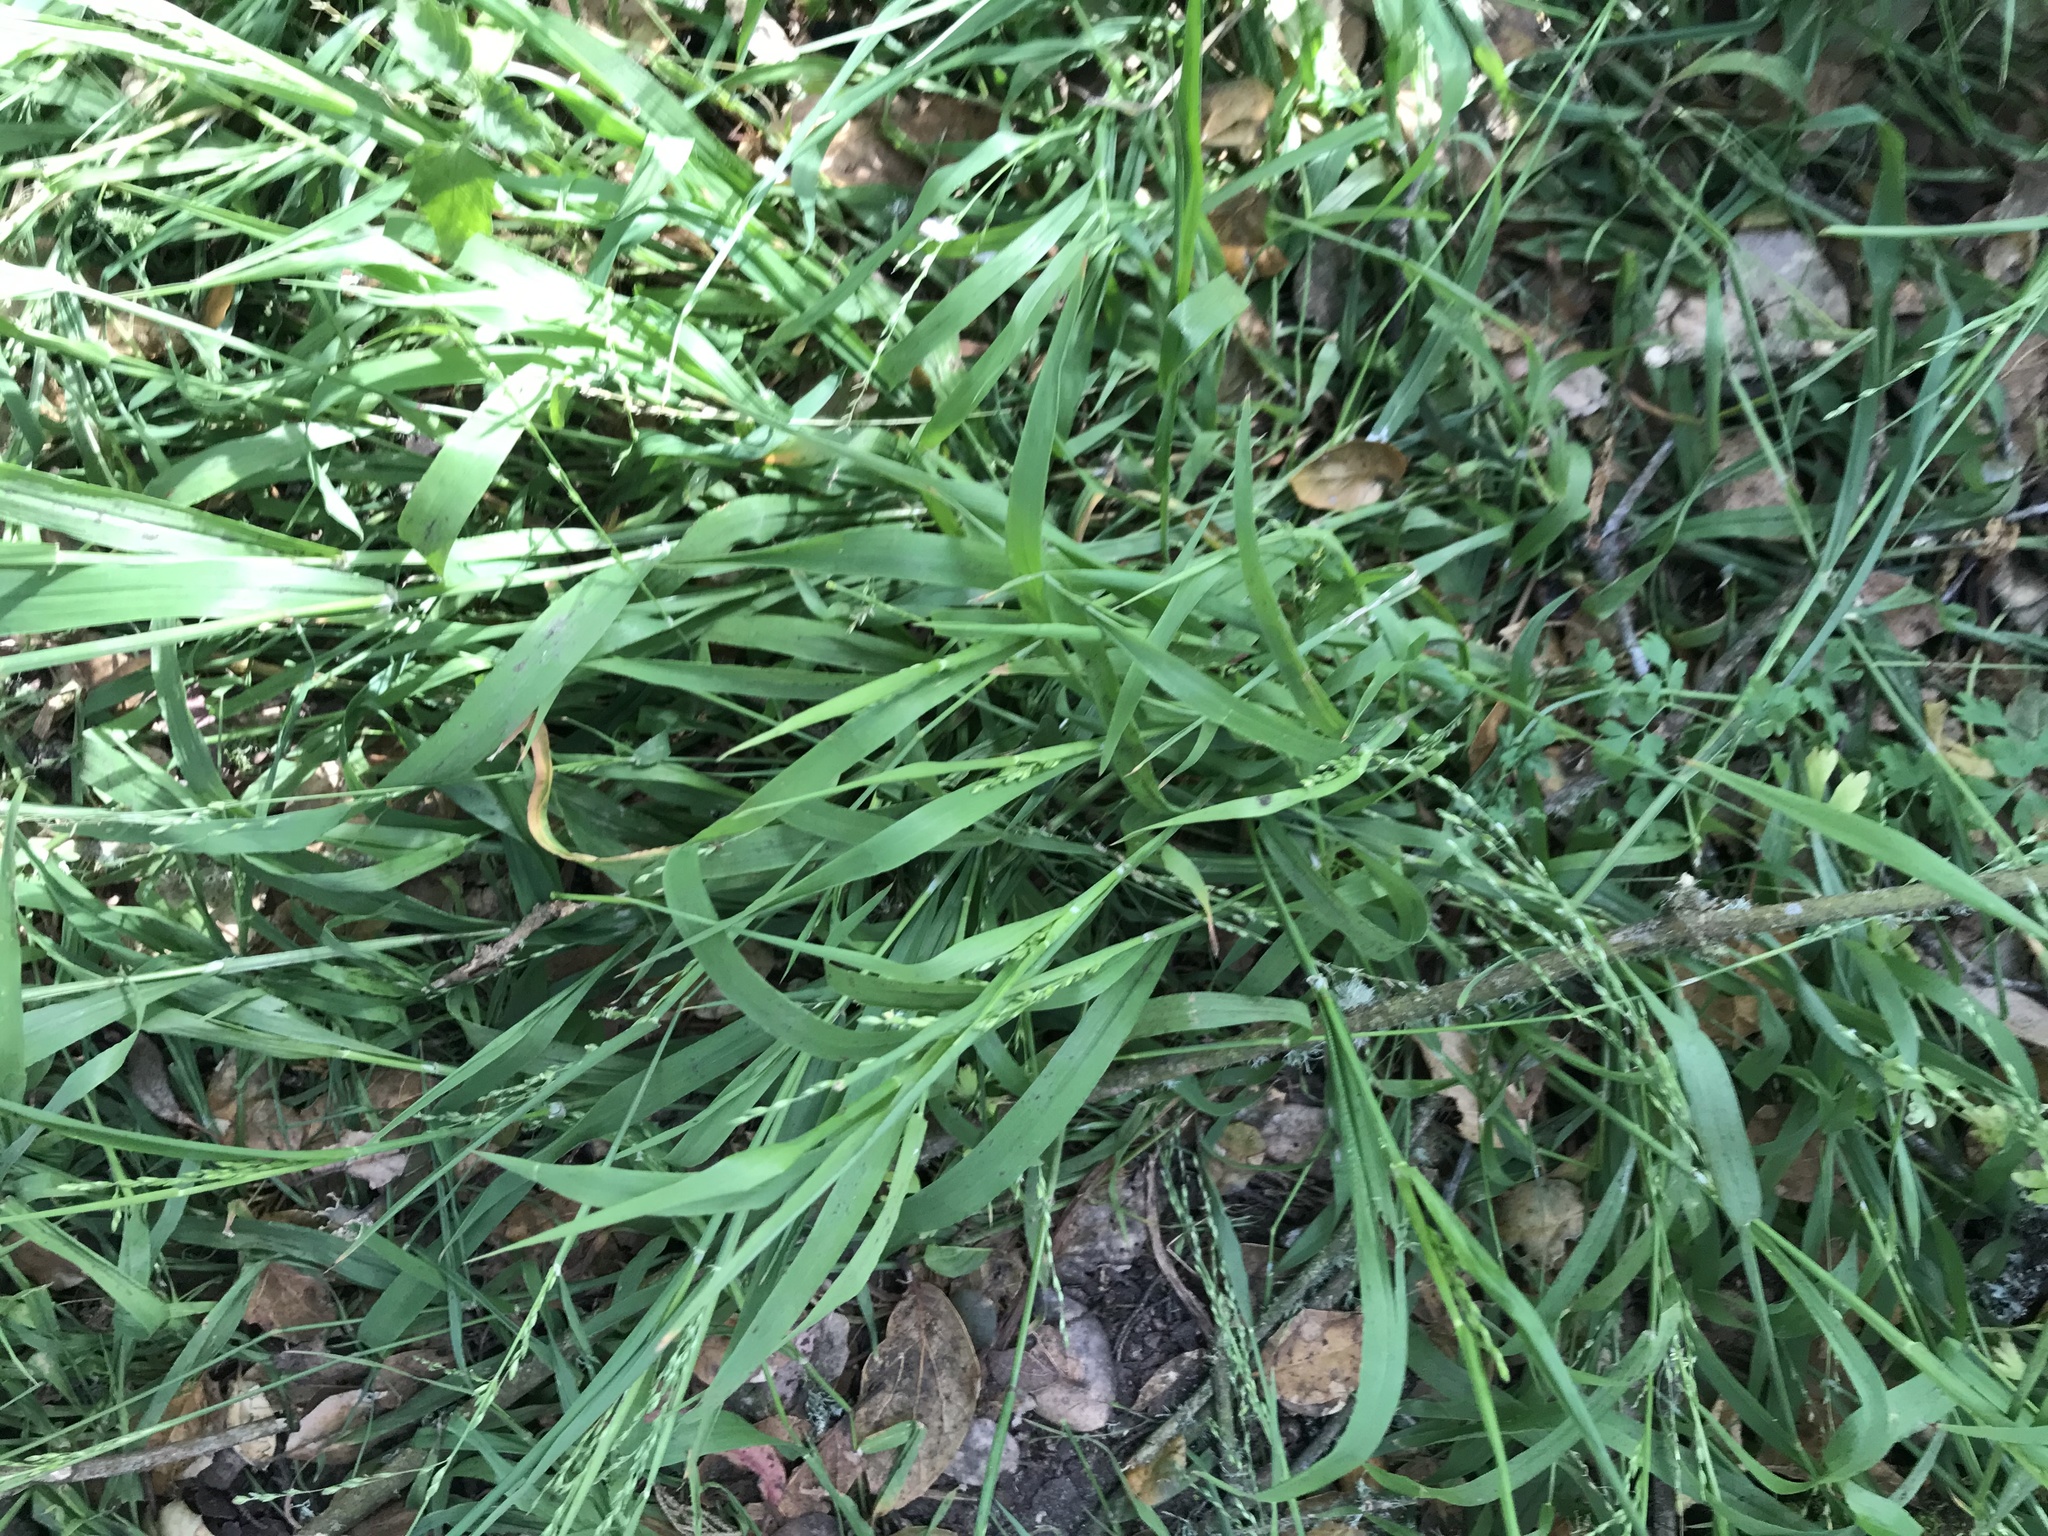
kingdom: Plantae
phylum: Tracheophyta
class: Liliopsida
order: Poales
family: Poaceae
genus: Ehrharta
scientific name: Ehrharta erecta
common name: Panic veldtgrass
